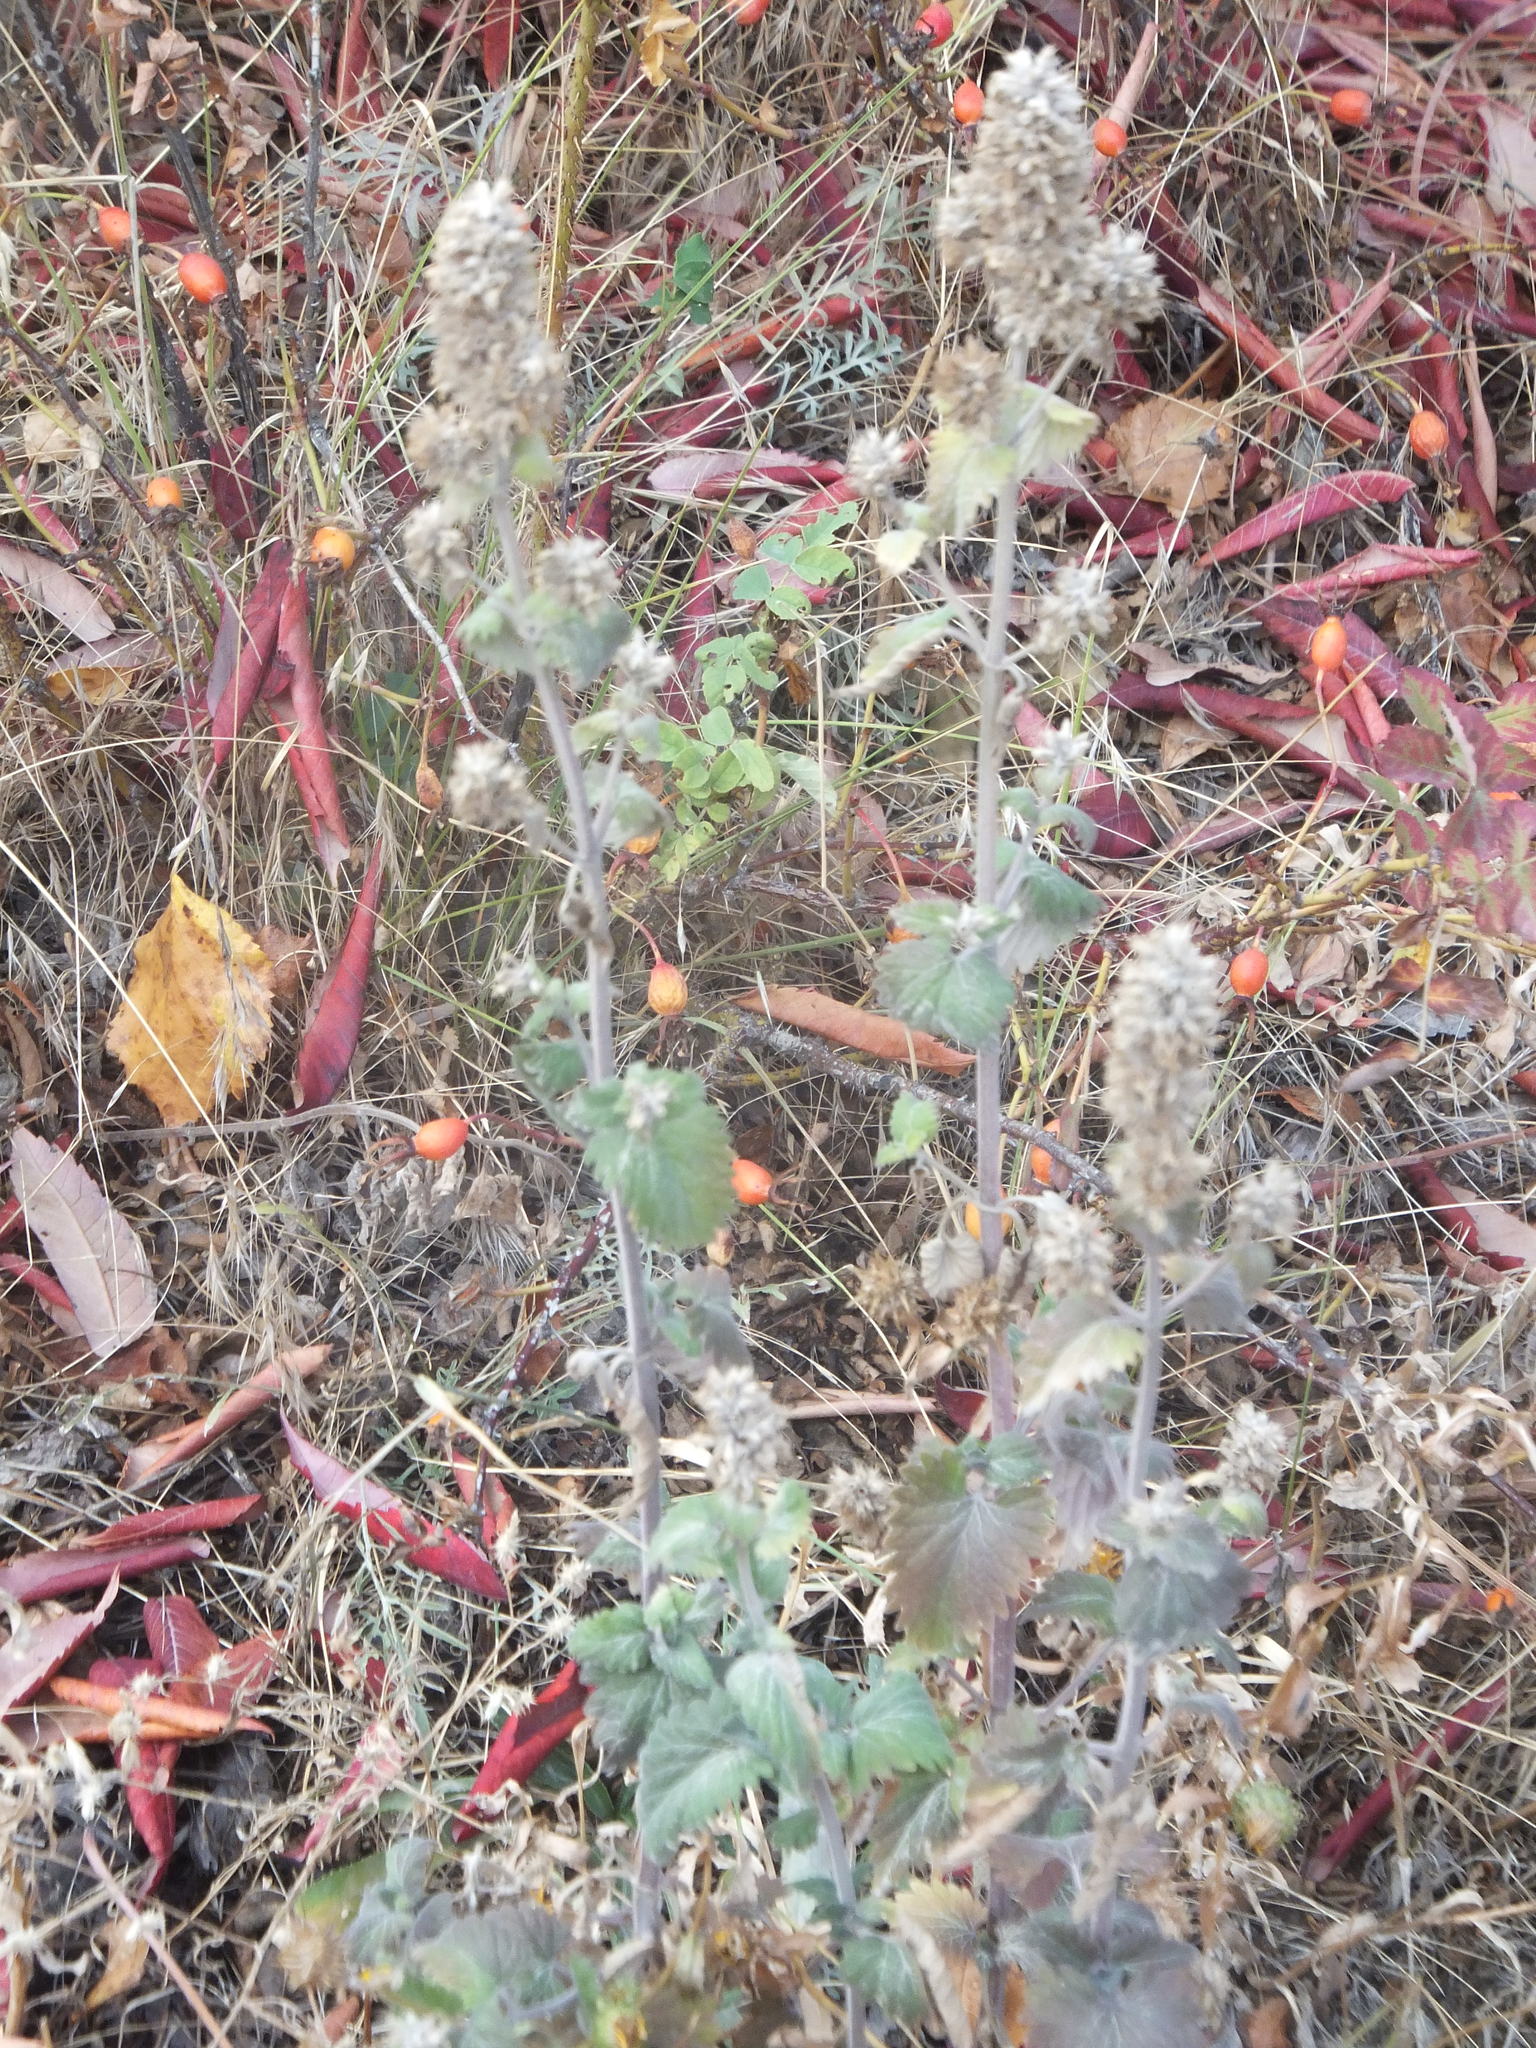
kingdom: Plantae
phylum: Tracheophyta
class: Magnoliopsida
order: Lamiales
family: Lamiaceae
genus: Nepeta
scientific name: Nepeta cataria
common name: Catnip
